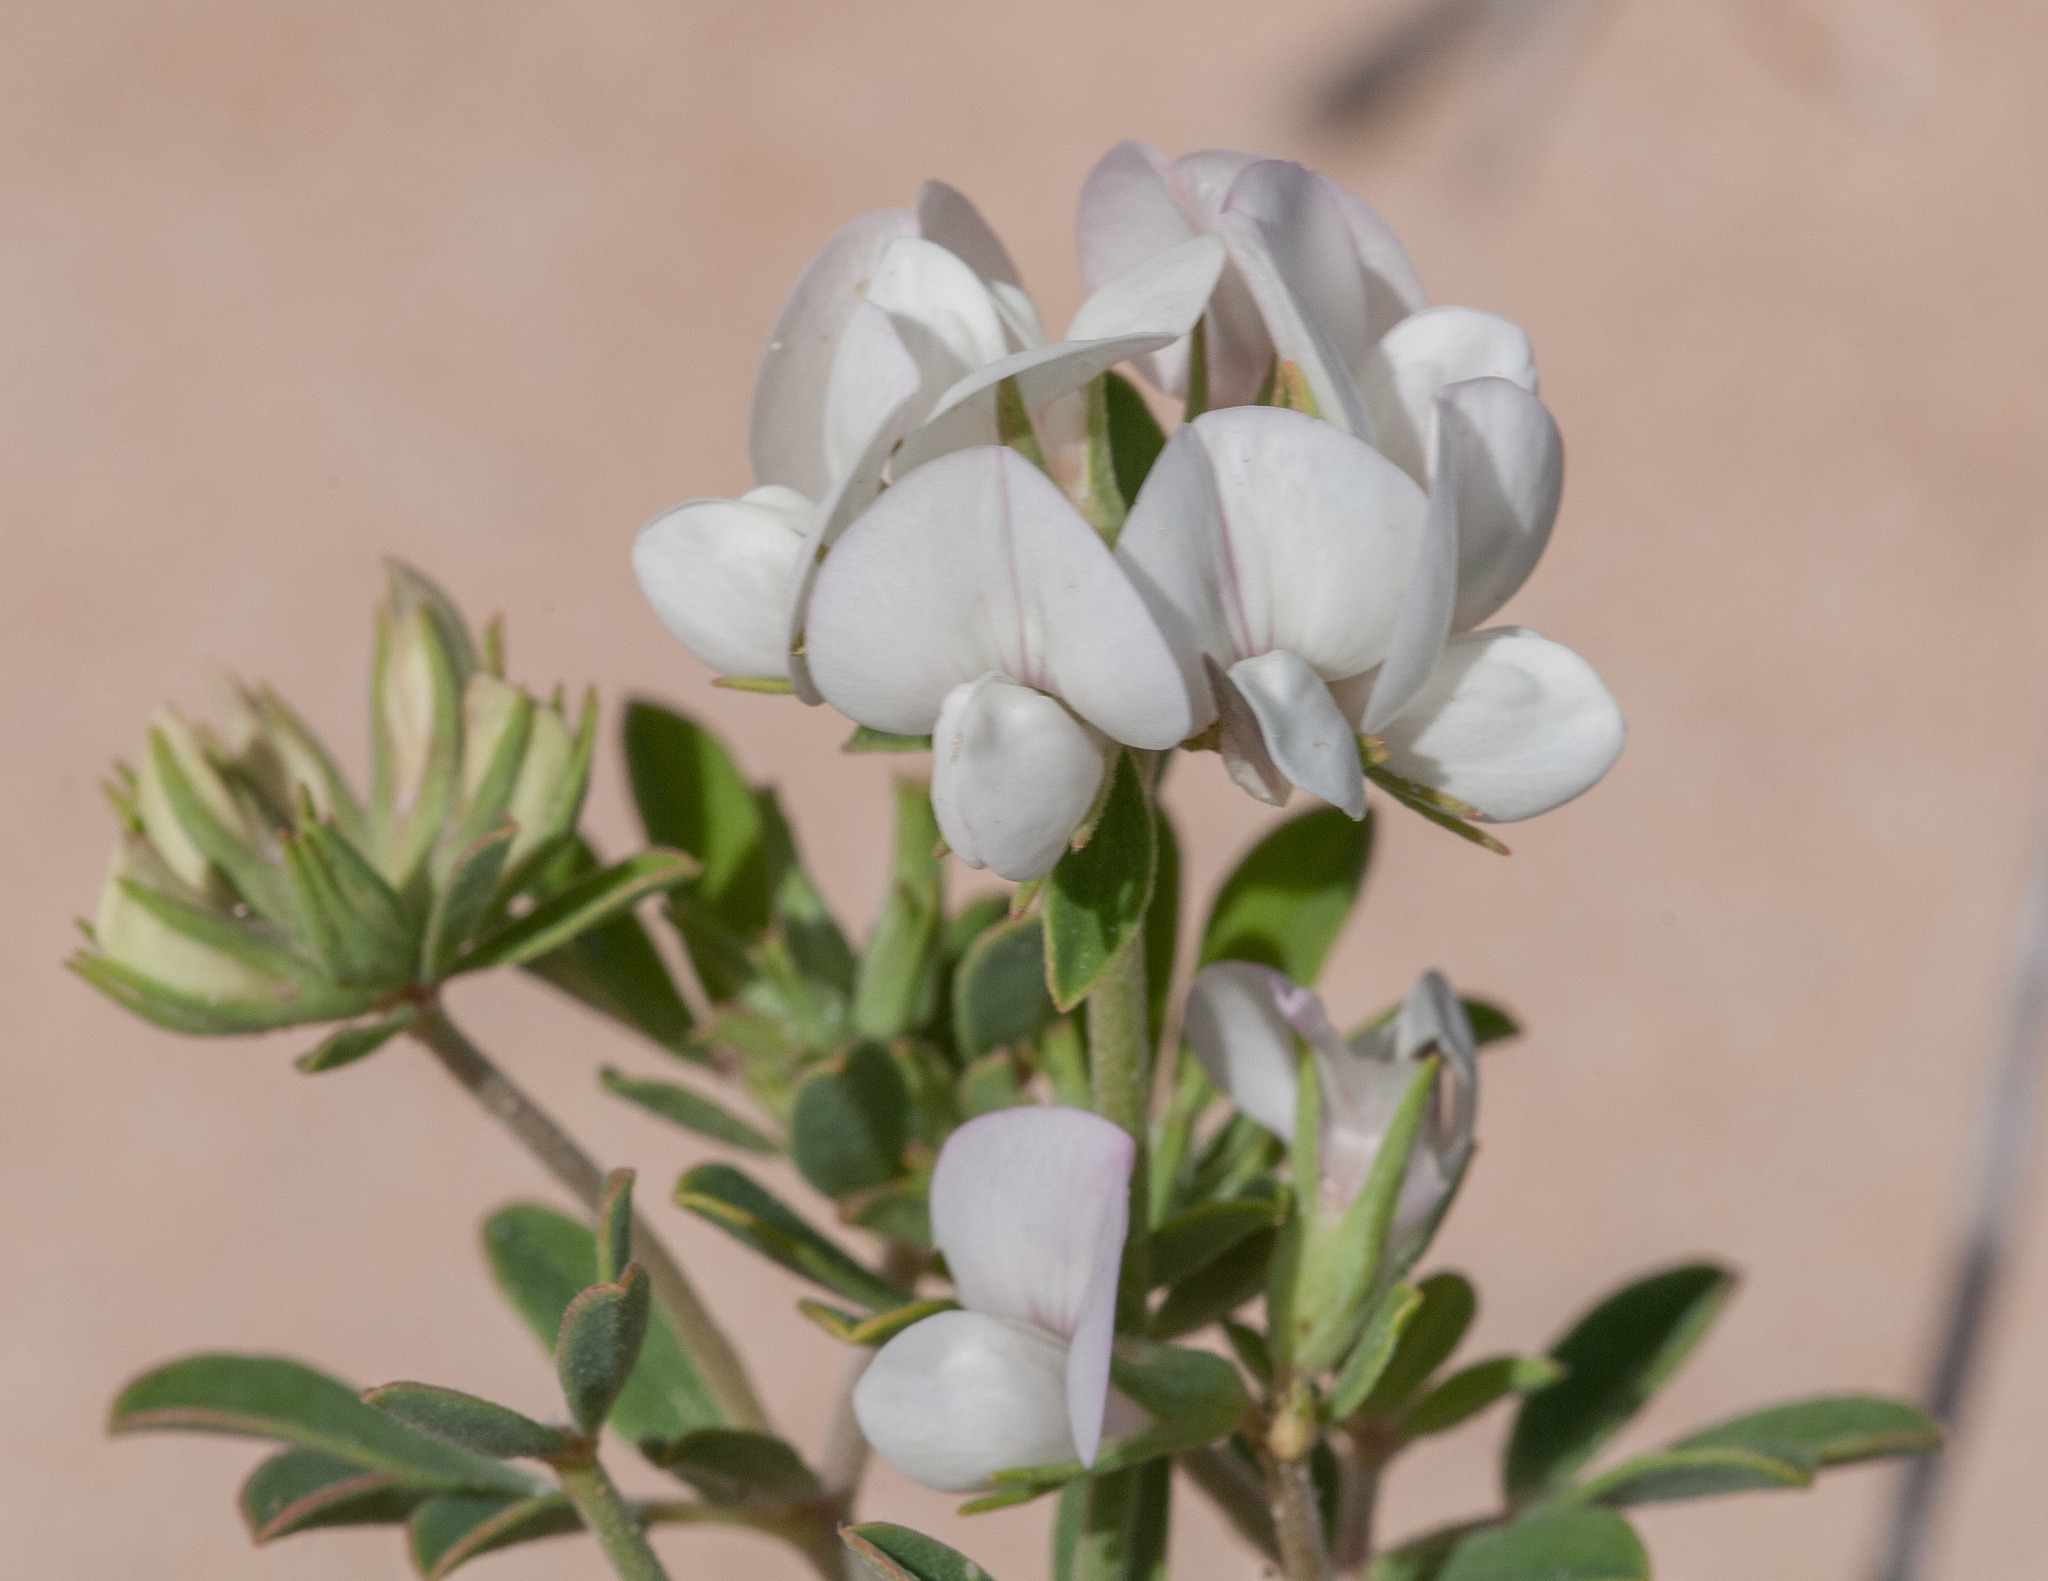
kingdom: Plantae
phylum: Tracheophyta
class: Magnoliopsida
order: Fabales
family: Fabaceae
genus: Lotus
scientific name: Lotus australis
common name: Australian trefoil
